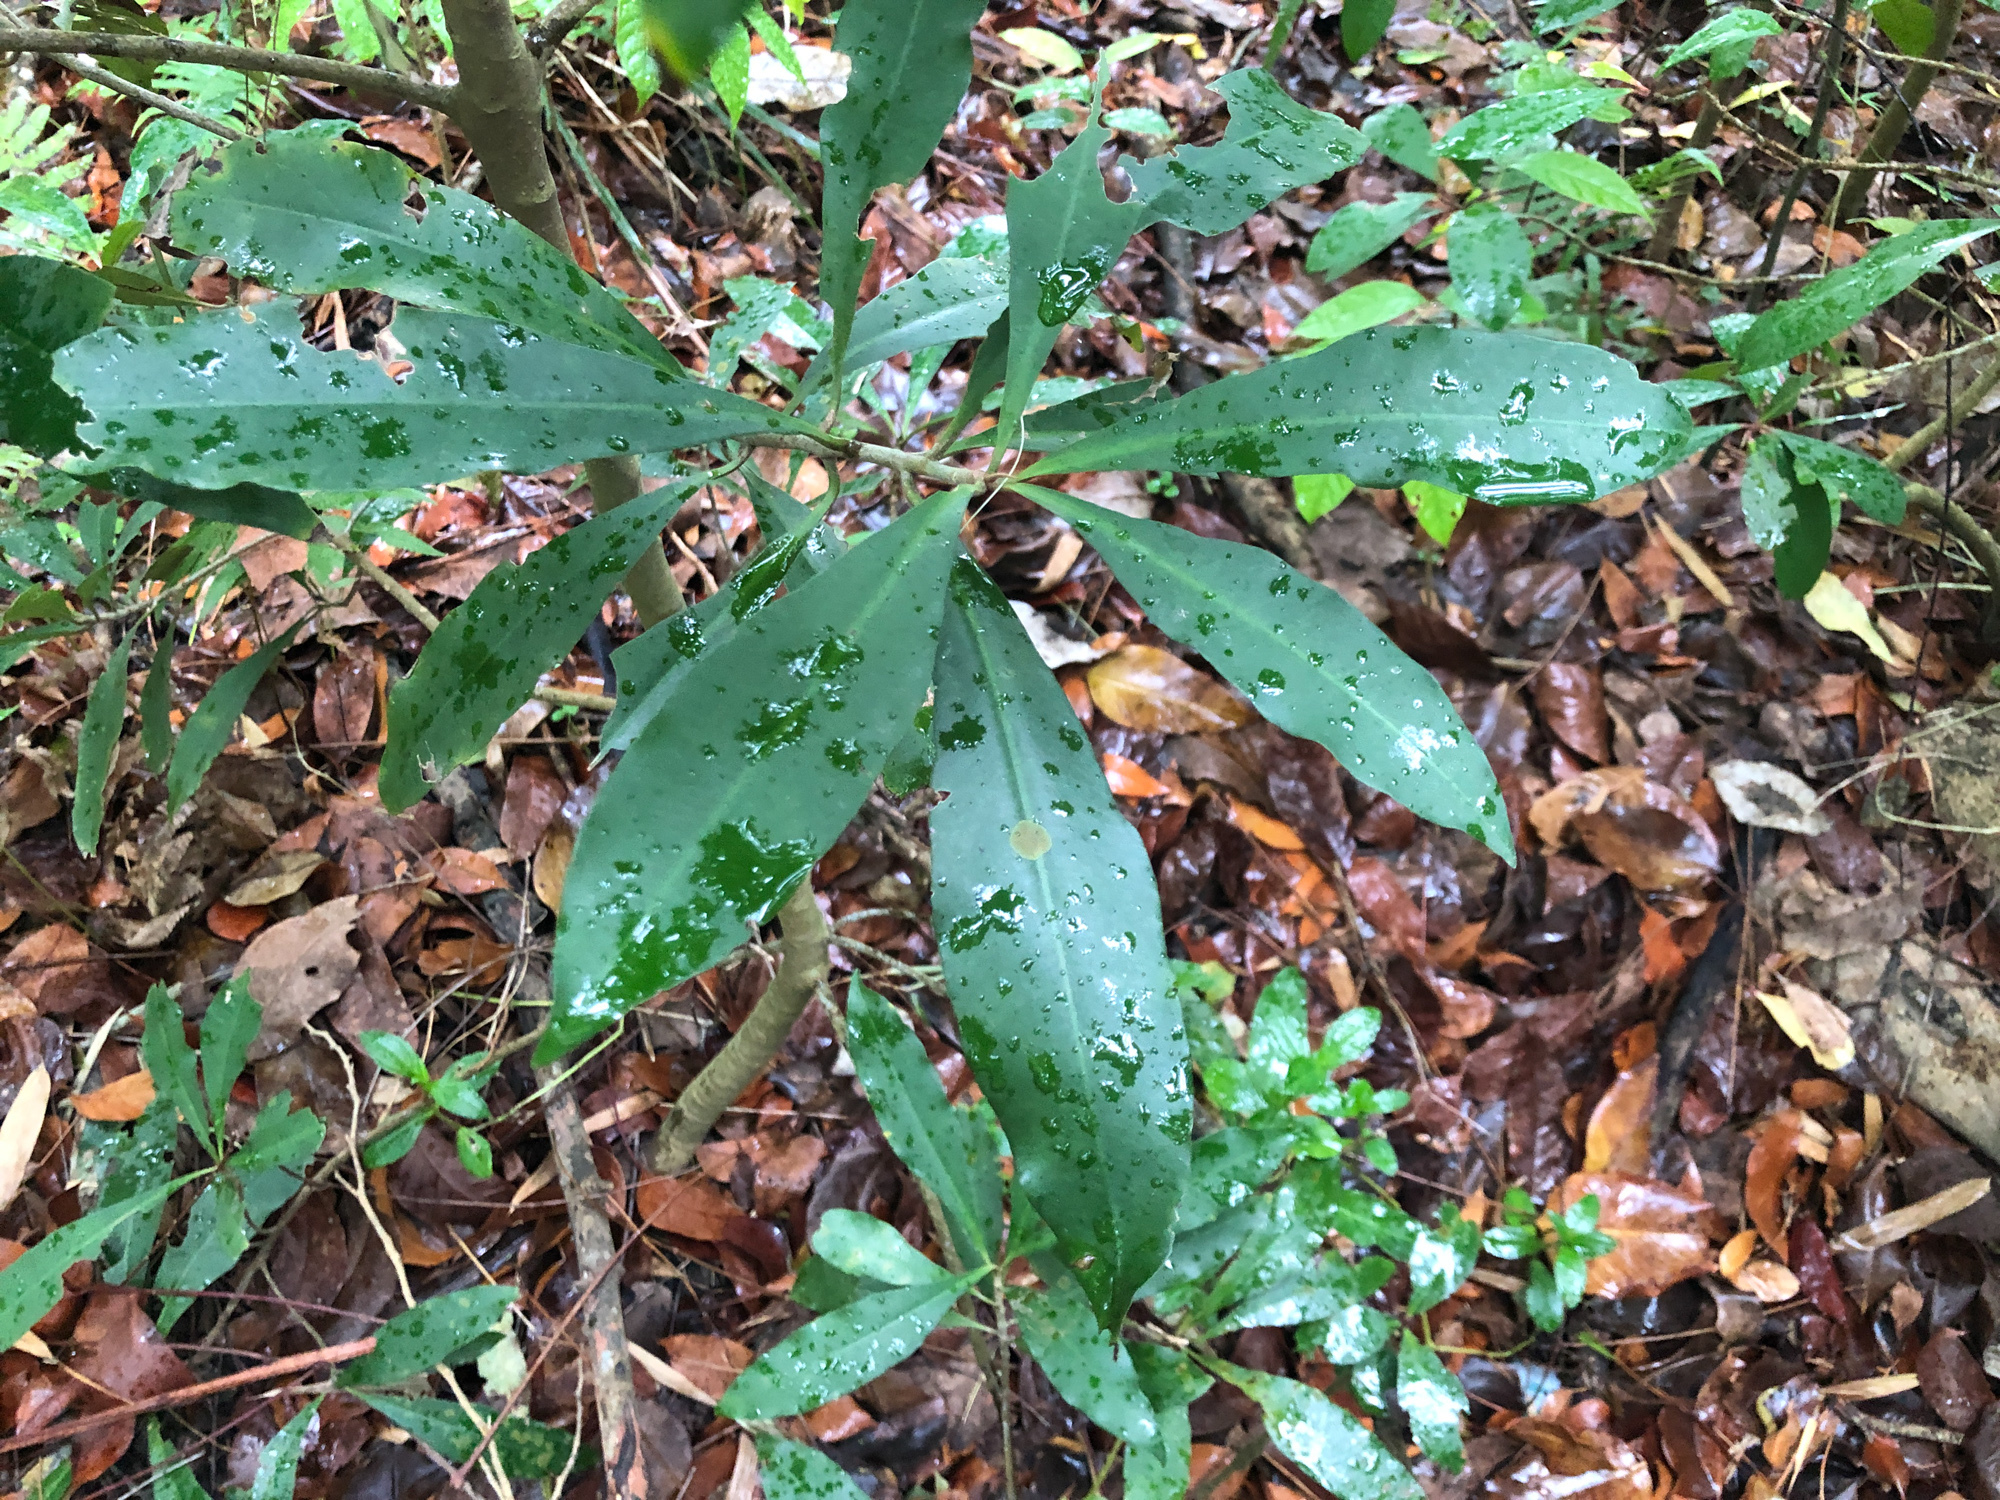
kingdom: Plantae
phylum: Tracheophyta
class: Magnoliopsida
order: Ericales
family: Primulaceae
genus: Ardisia
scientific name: Ardisia sieboldii
